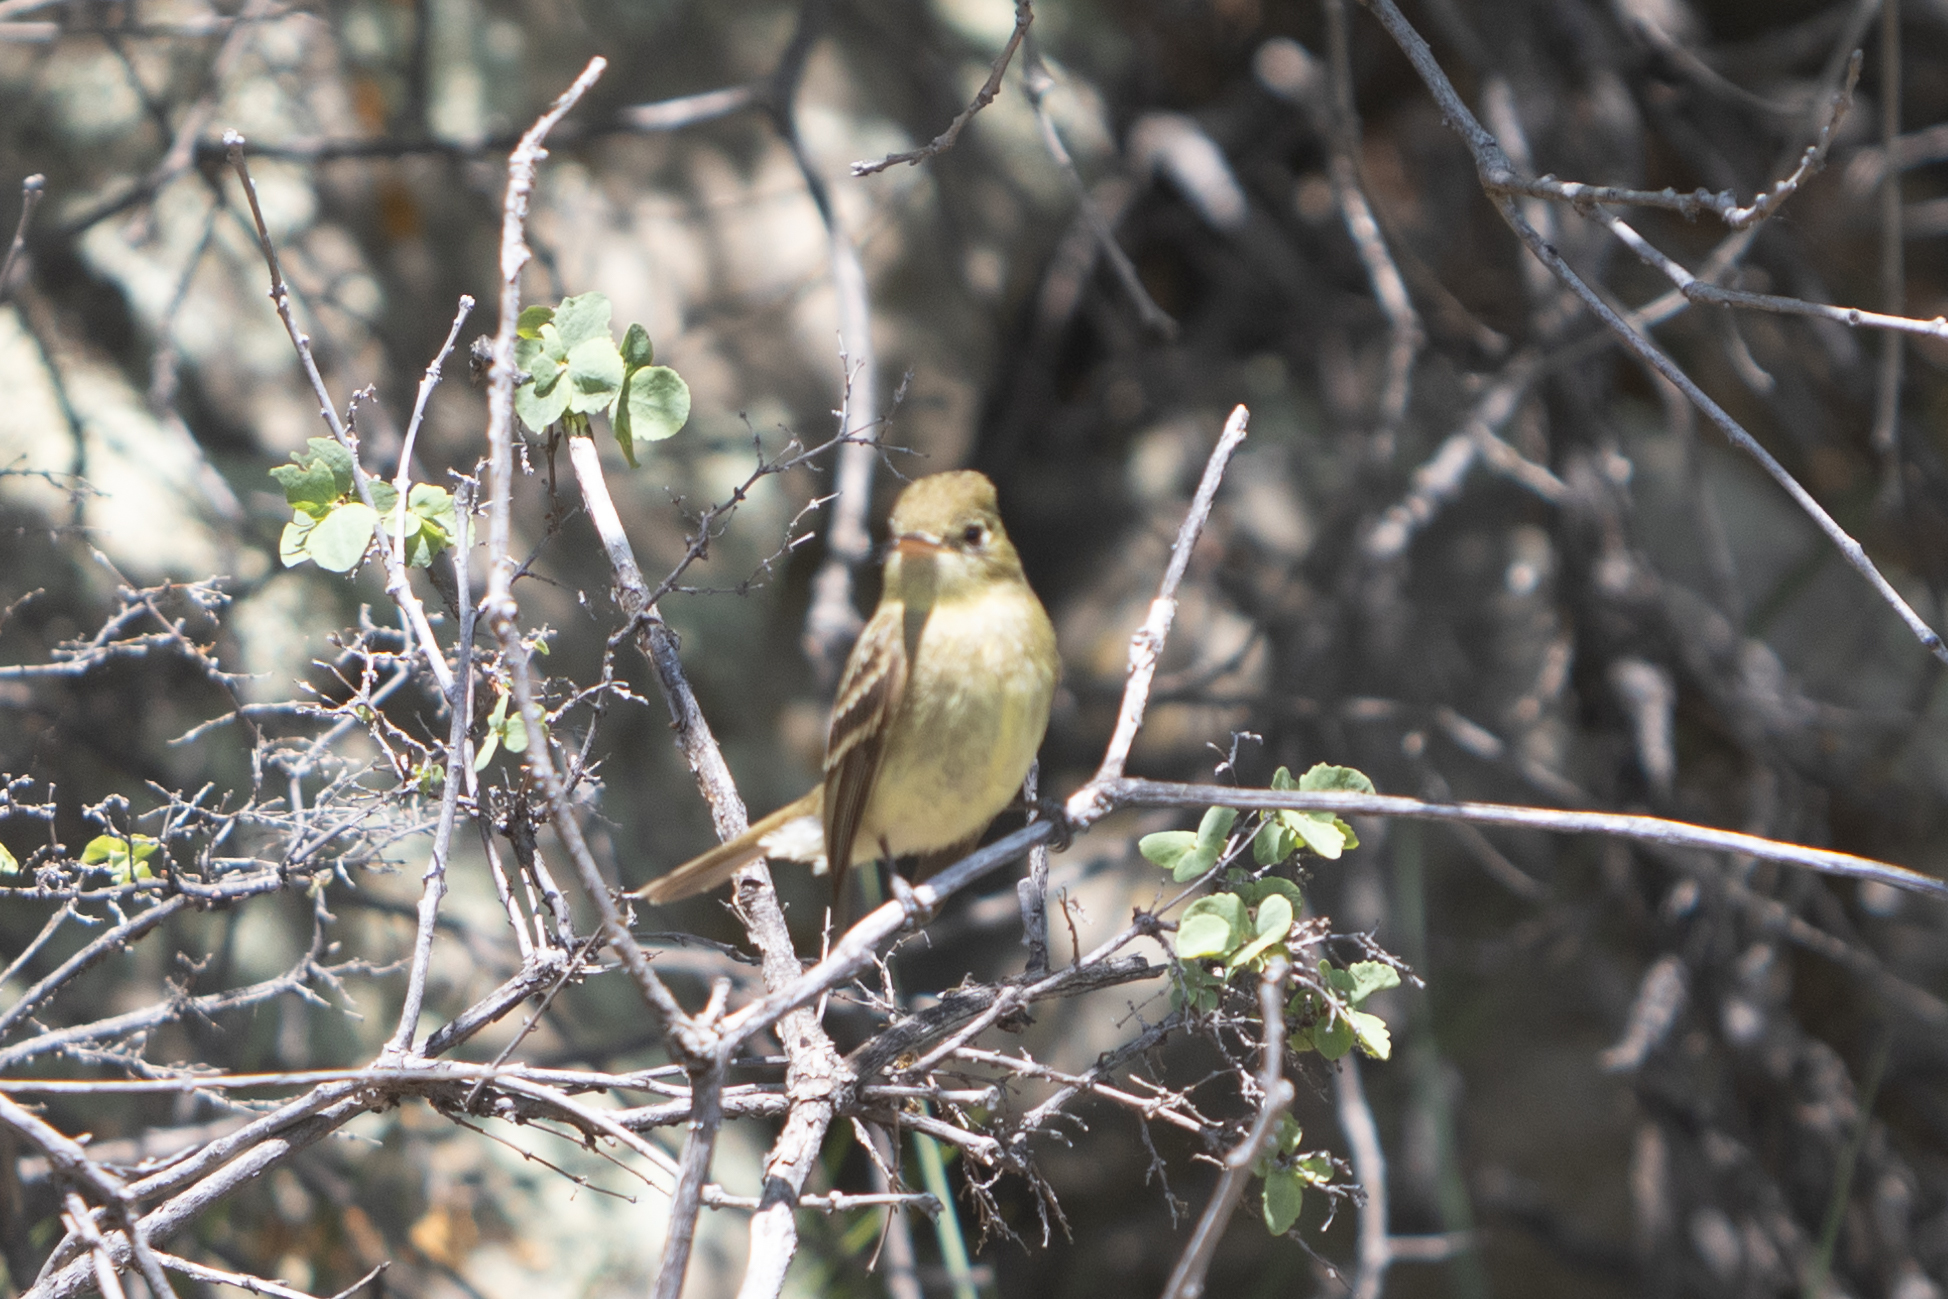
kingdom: Animalia
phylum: Chordata
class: Aves
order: Passeriformes
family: Tyrannidae
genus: Empidonax
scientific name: Empidonax difficilis
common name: Pacific-slope flycatcher
